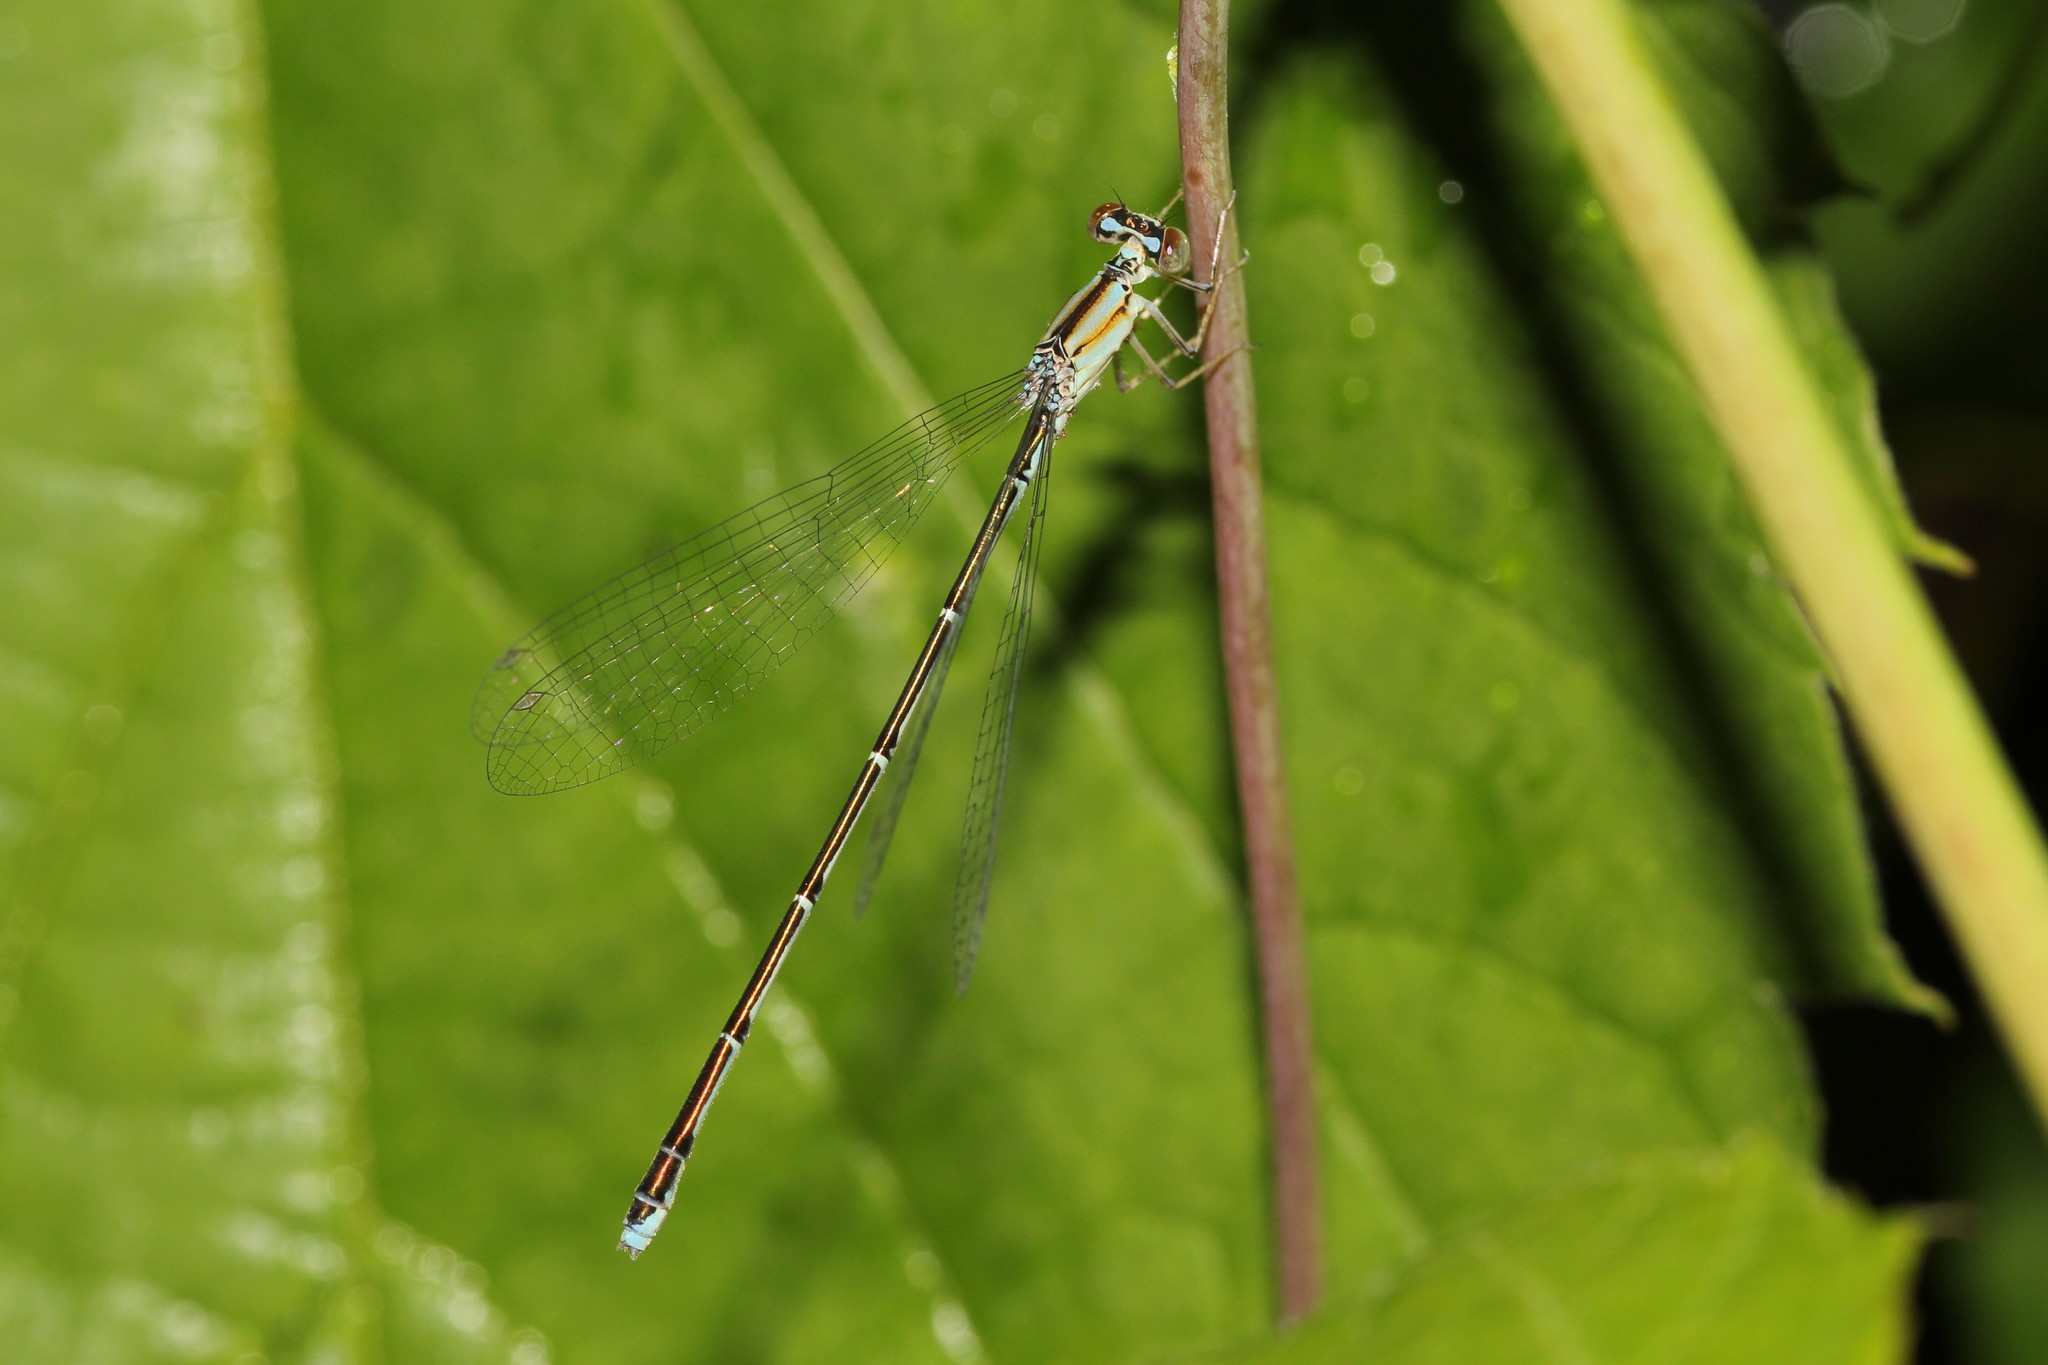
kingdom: Animalia
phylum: Arthropoda
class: Insecta
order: Odonata
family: Coenagrionidae
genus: Enallagma
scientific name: Enallagma vesperum
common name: Vesper bluet
